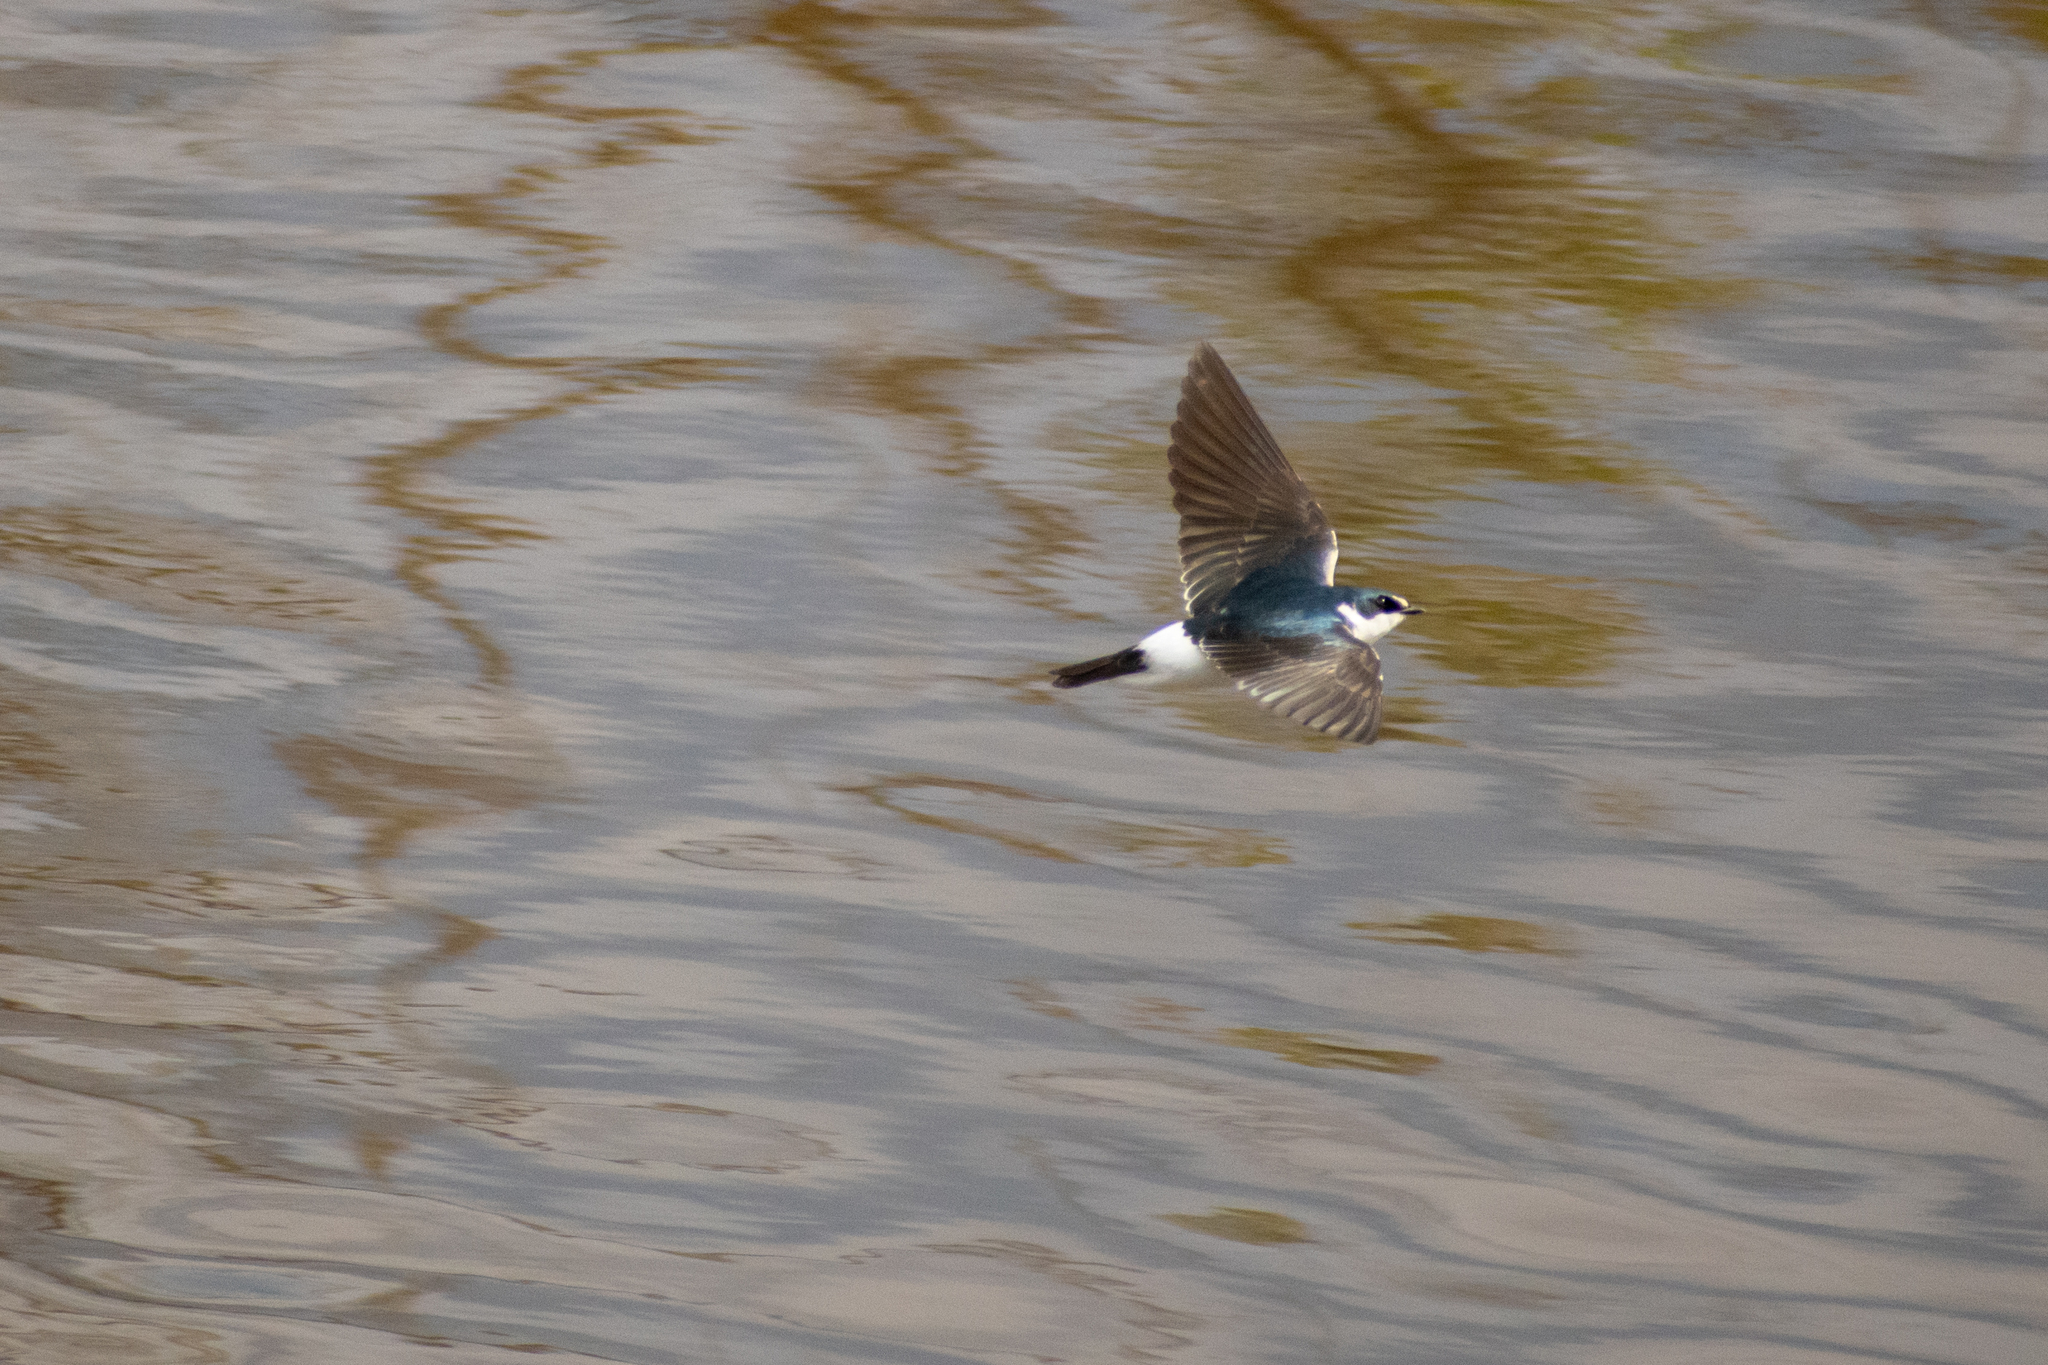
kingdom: Animalia
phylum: Chordata
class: Aves
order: Passeriformes
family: Hirundinidae
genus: Tachycineta
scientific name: Tachycineta leucorrhoa
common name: White-rumped swallow
